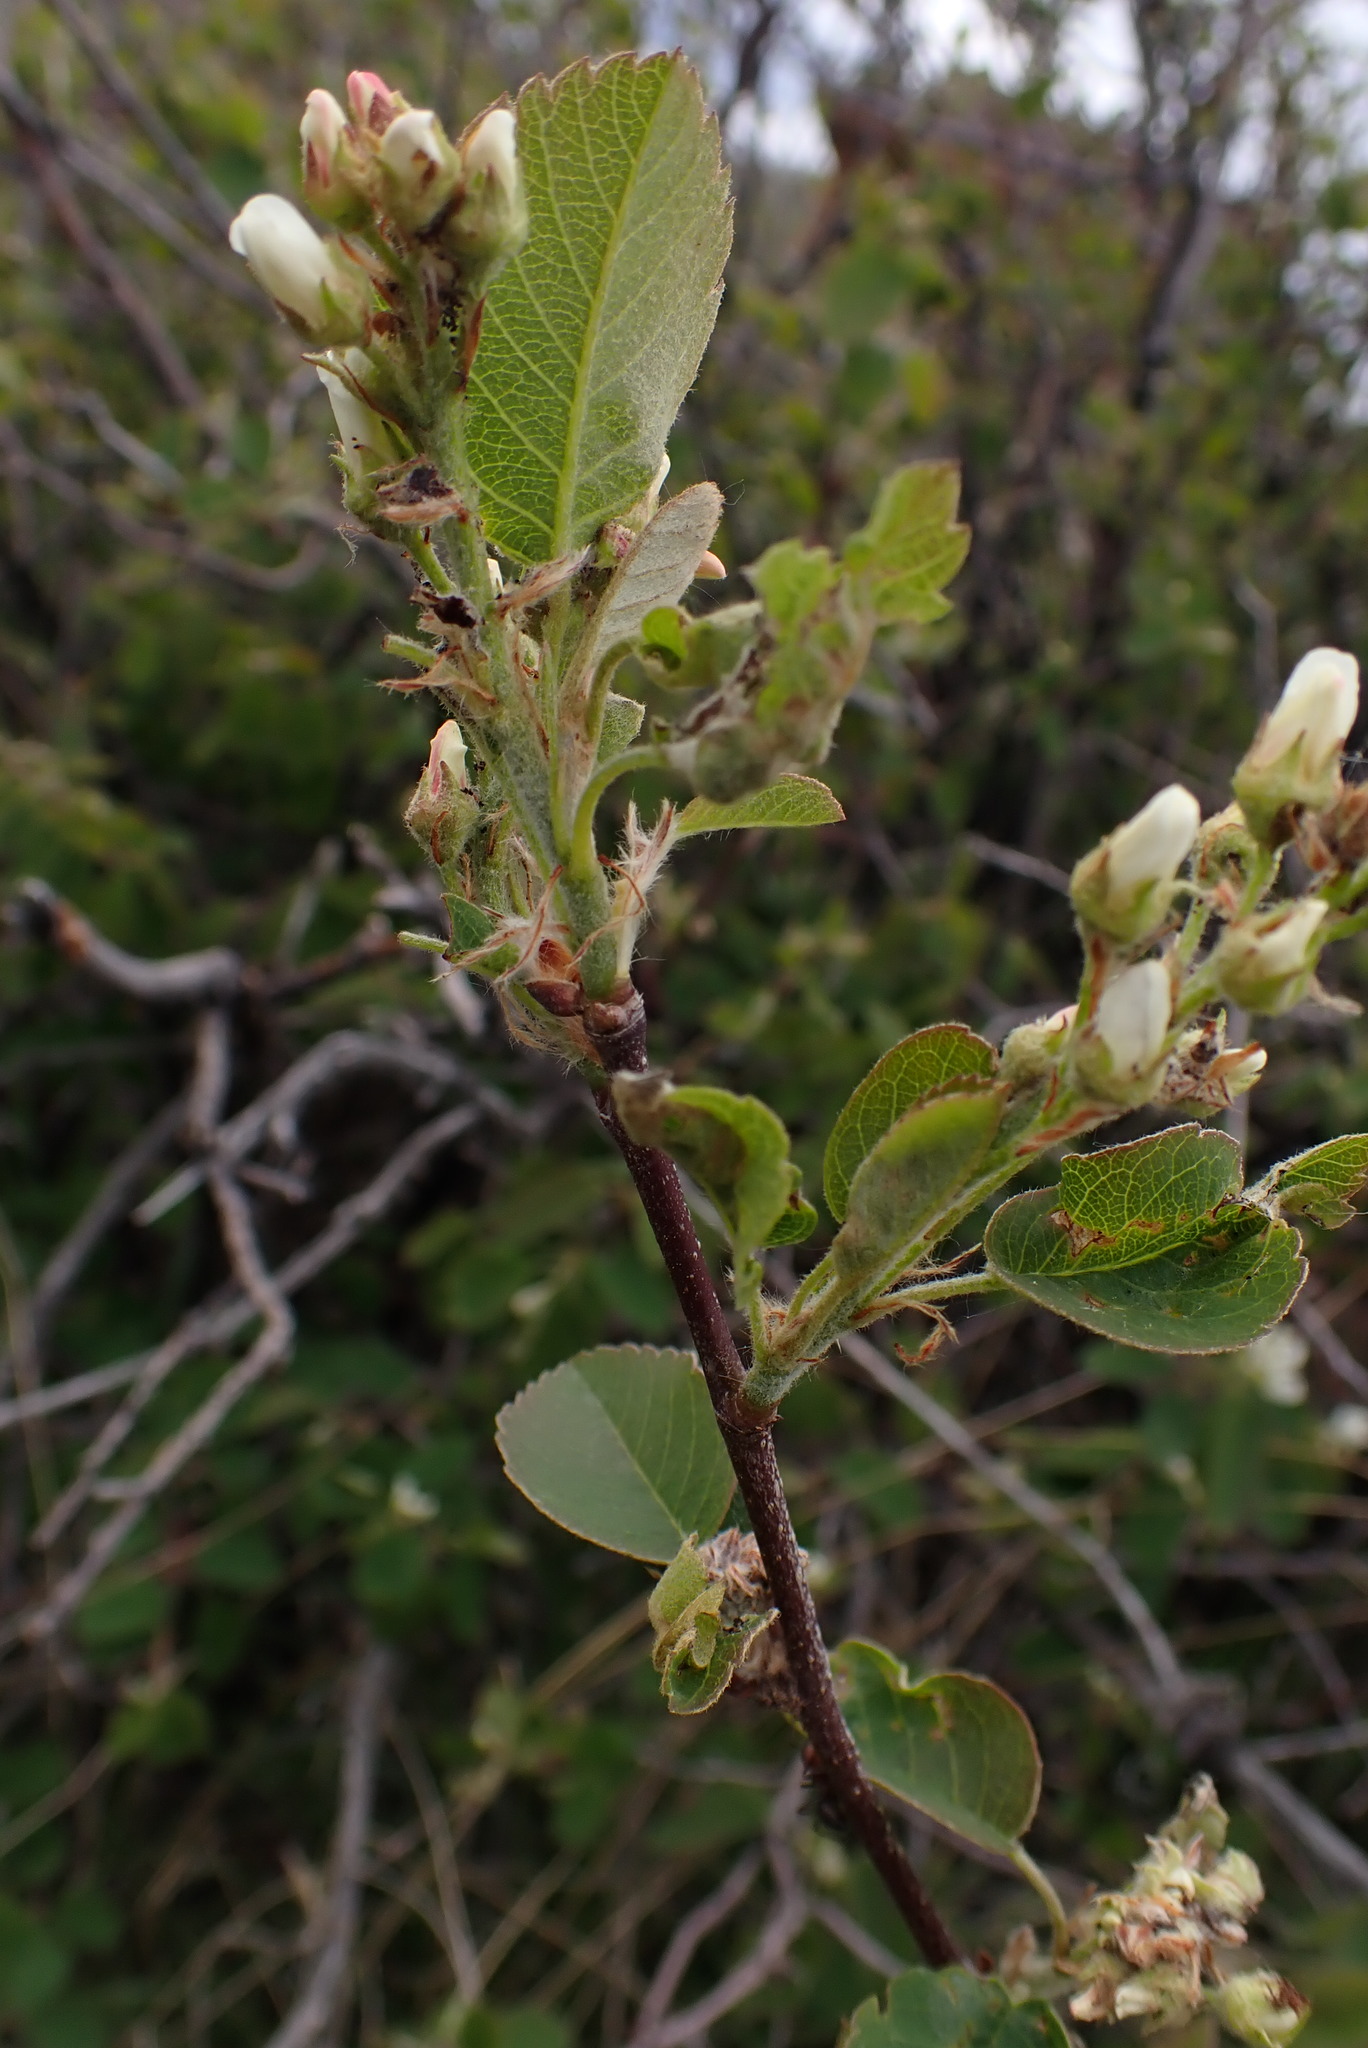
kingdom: Plantae
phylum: Tracheophyta
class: Magnoliopsida
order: Rosales
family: Rosaceae
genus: Amelanchier
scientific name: Amelanchier alnifolia
